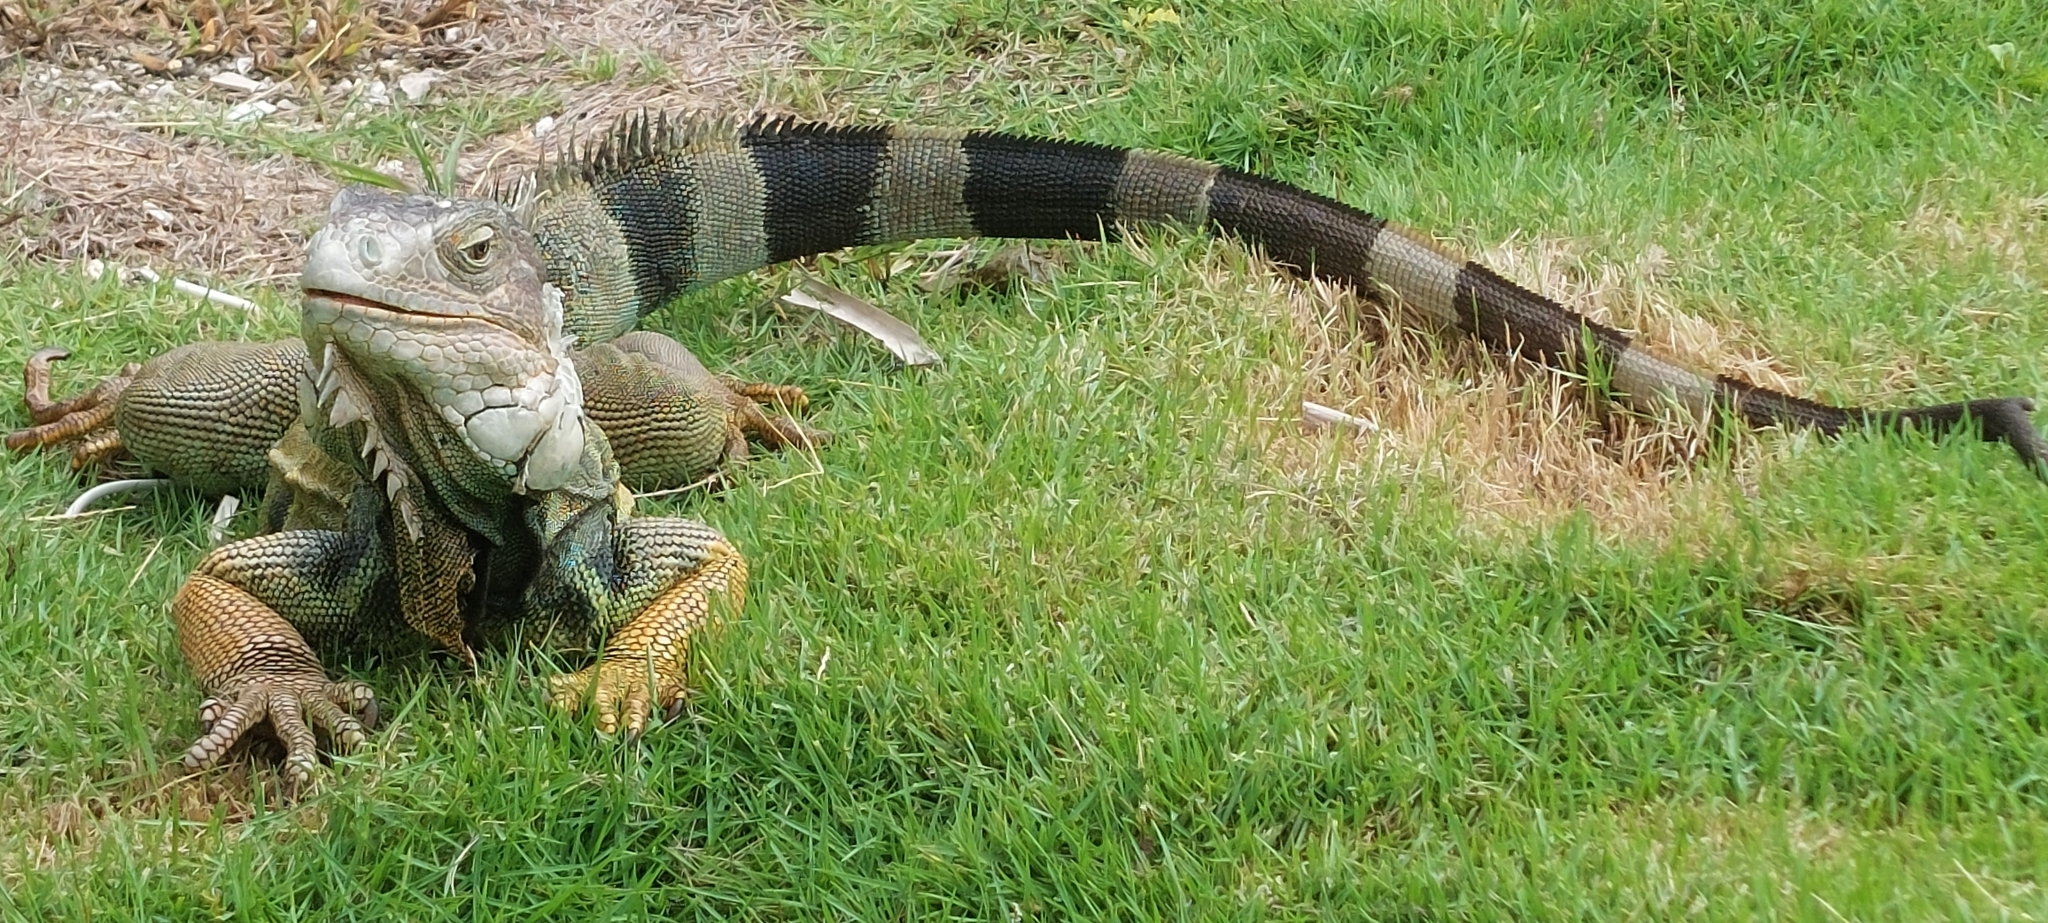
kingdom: Animalia
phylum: Chordata
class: Squamata
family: Iguanidae
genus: Iguana
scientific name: Iguana iguana
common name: Green iguana
